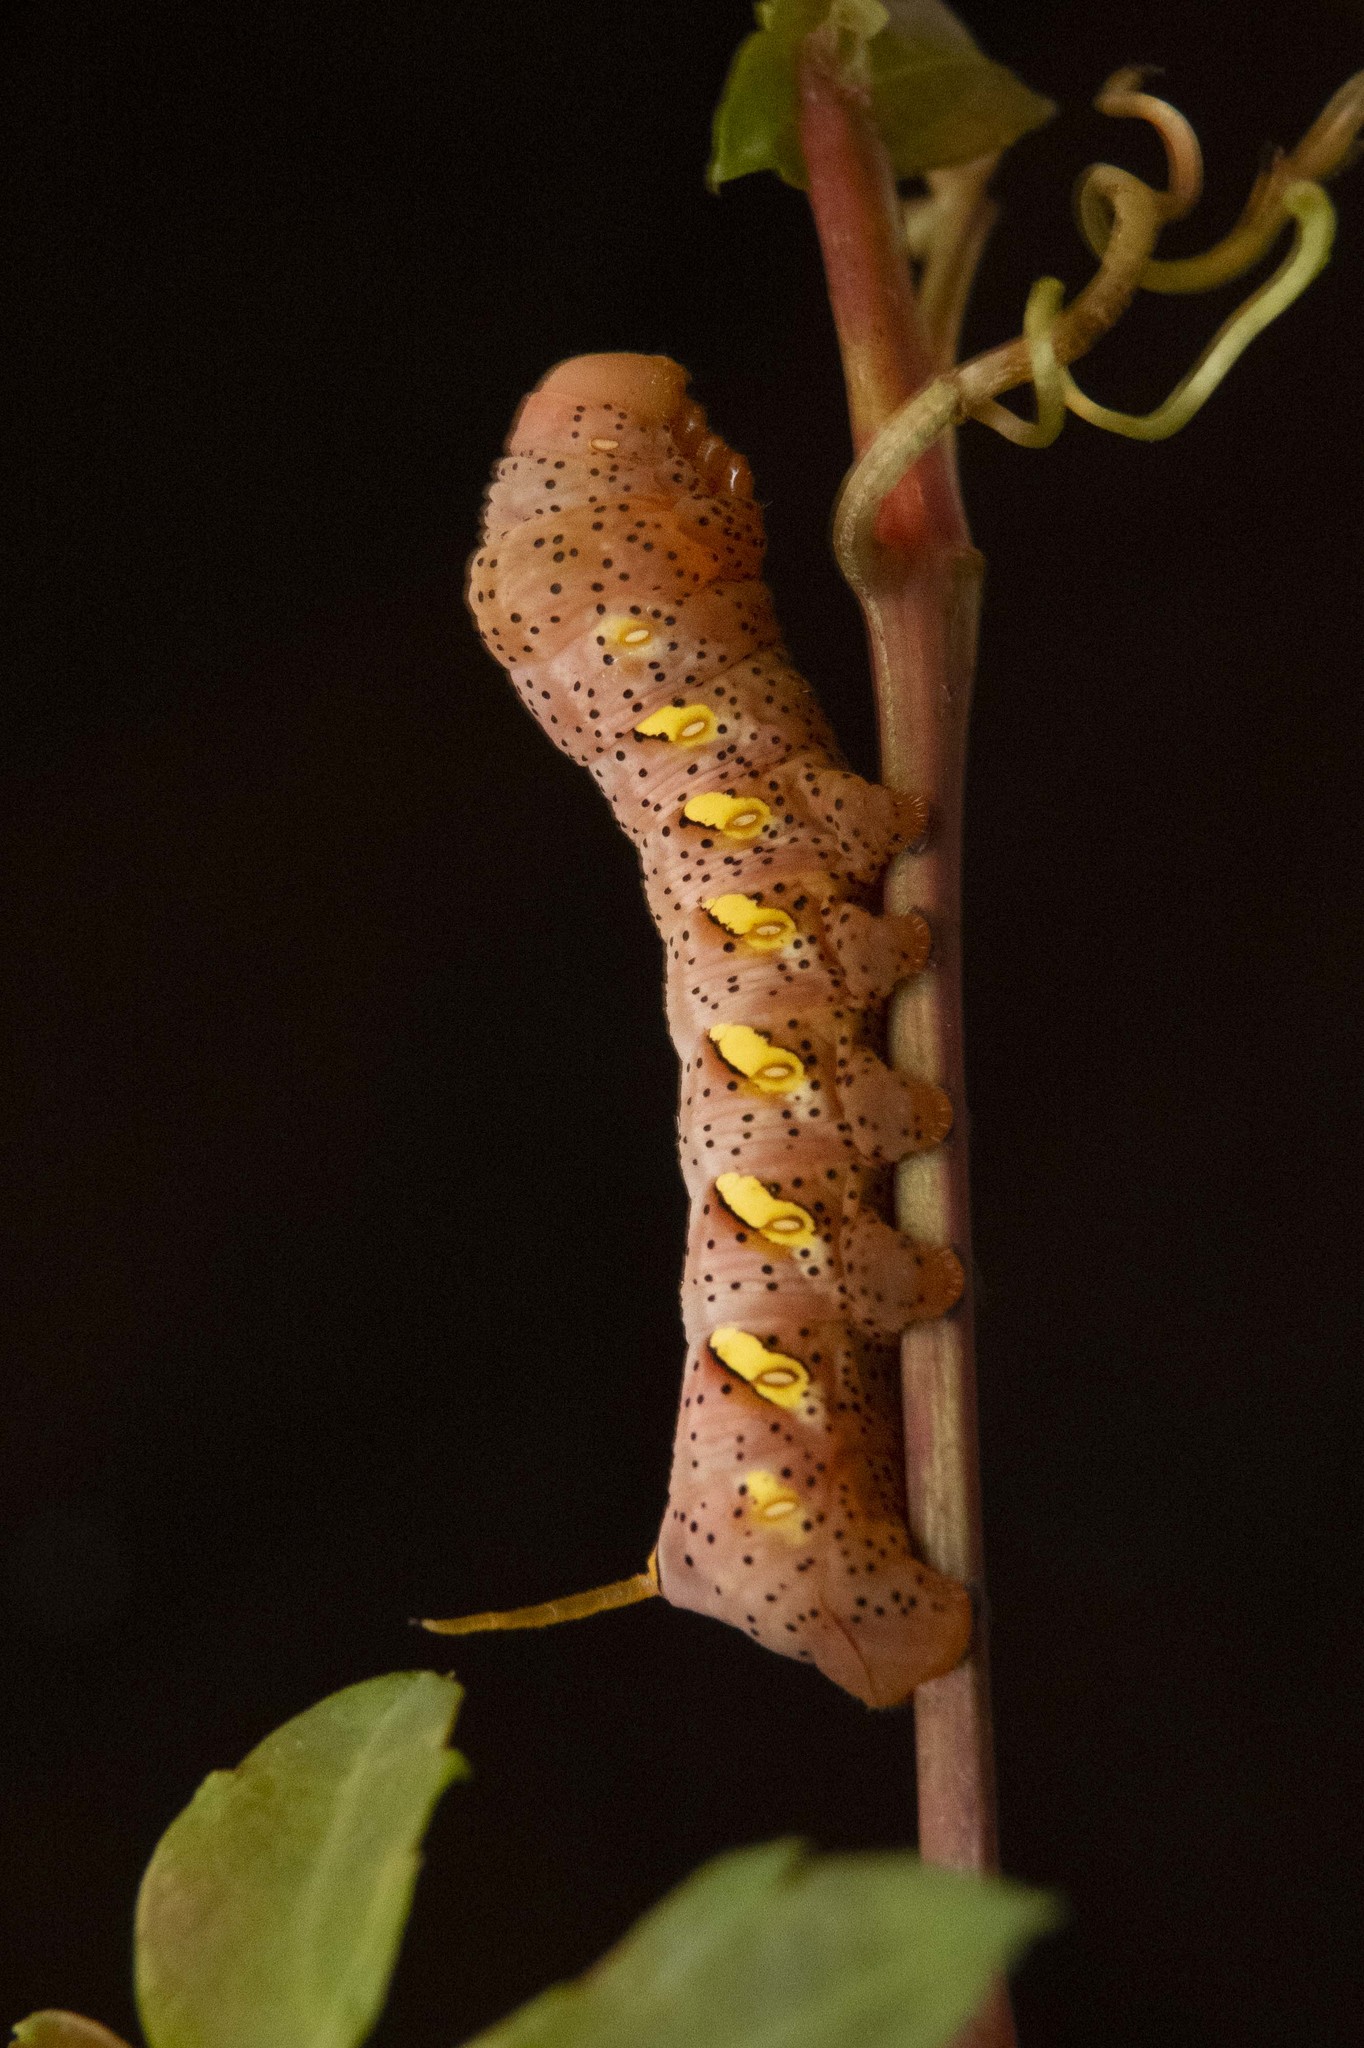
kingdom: Animalia
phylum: Arthropoda
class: Insecta
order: Lepidoptera
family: Sphingidae
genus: Eumorpha
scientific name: Eumorpha typhon
